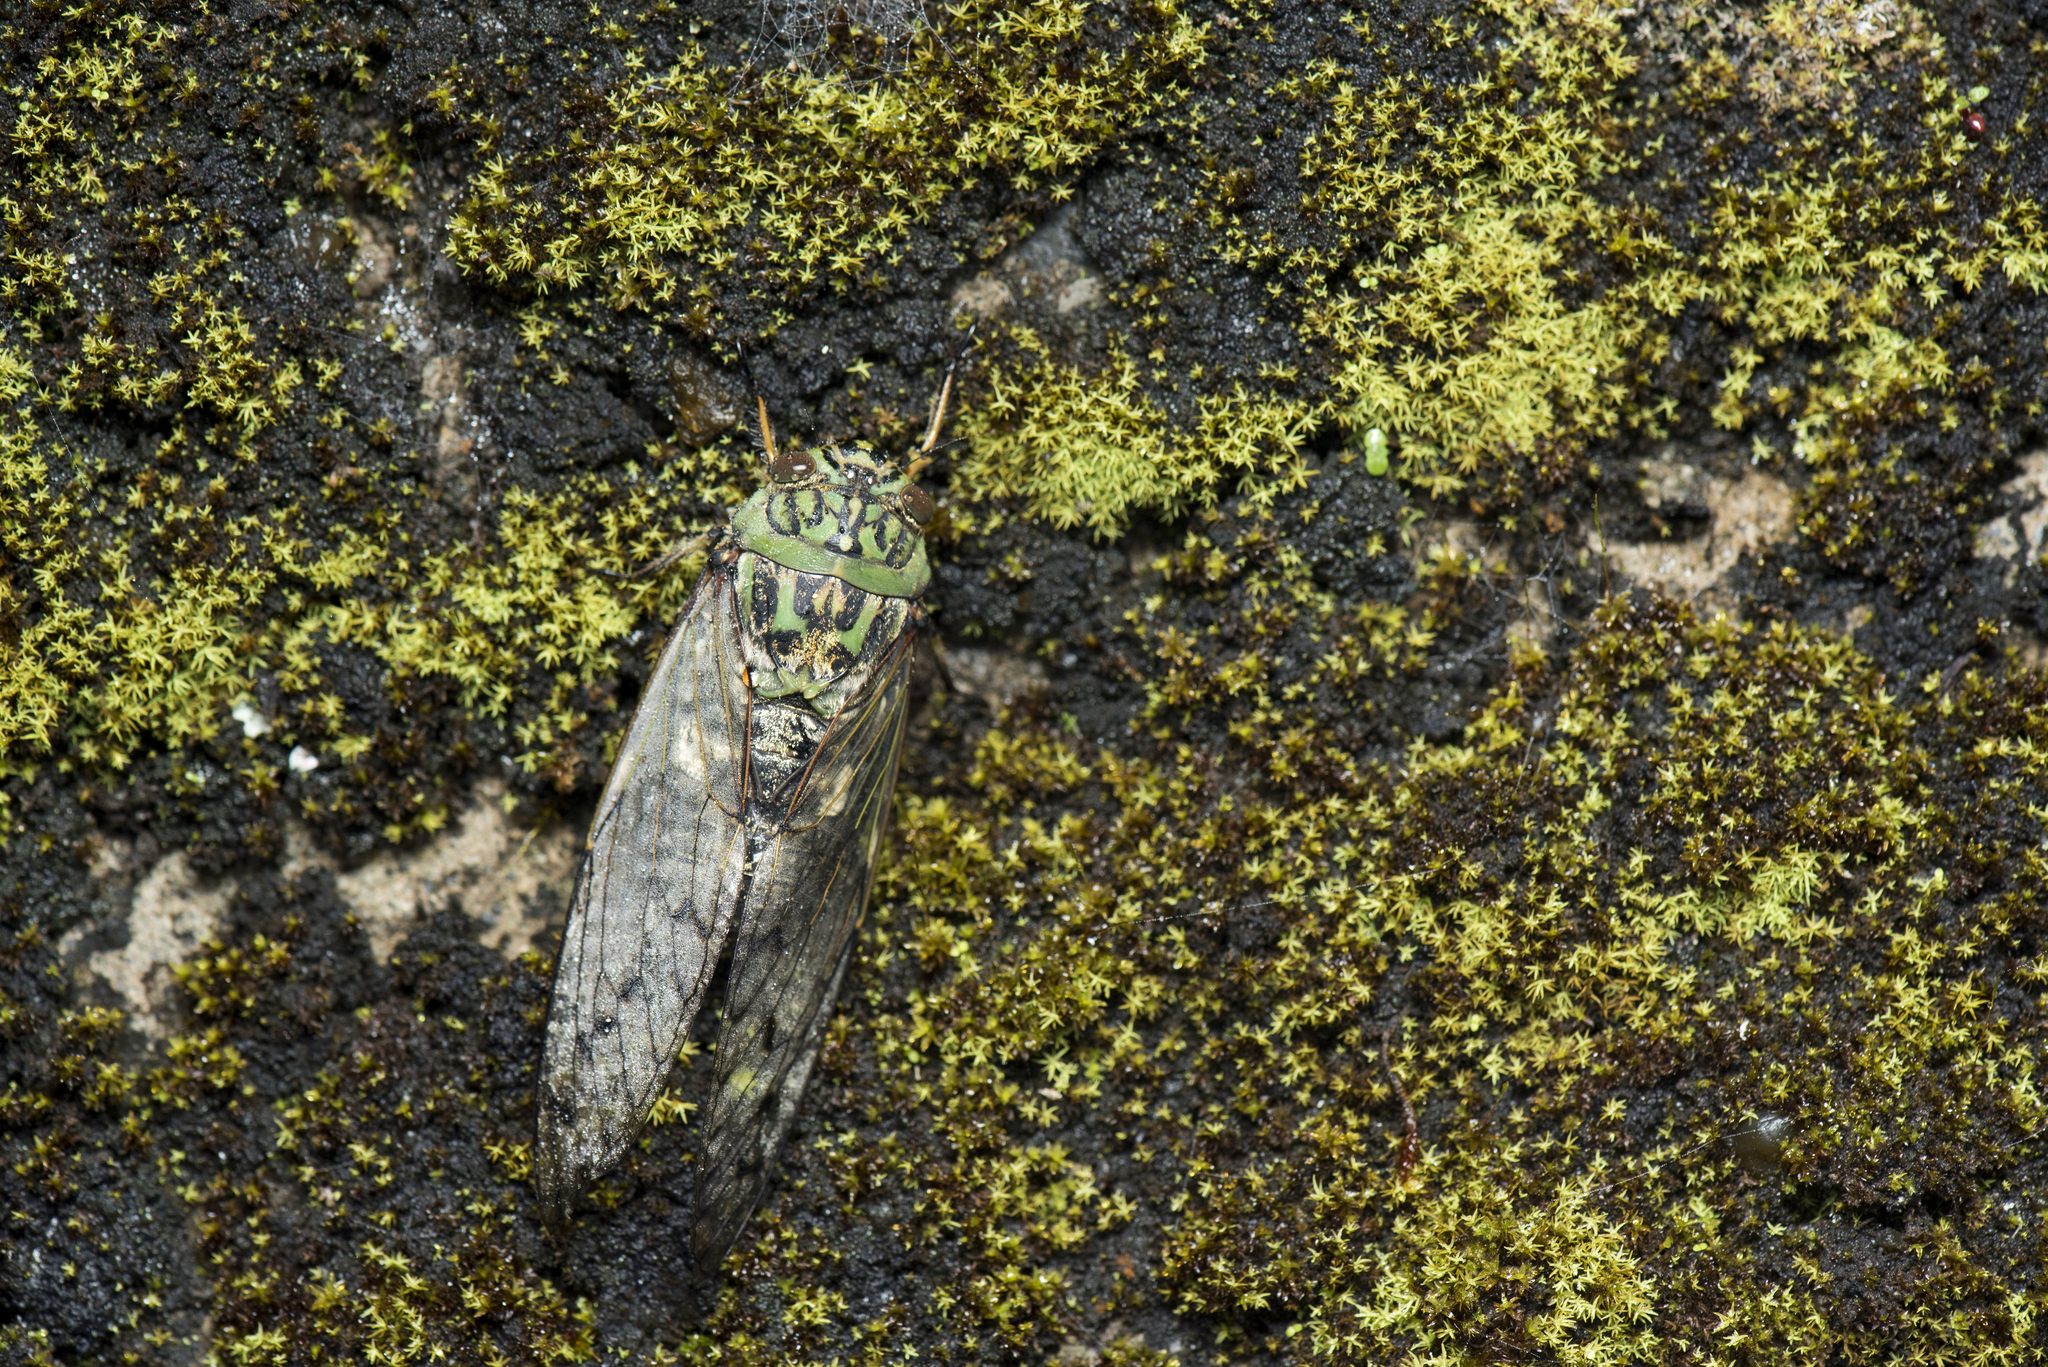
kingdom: Animalia
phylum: Arthropoda
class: Insecta
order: Hemiptera
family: Cicadidae
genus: Macrosemia
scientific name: Macrosemia kareisana
